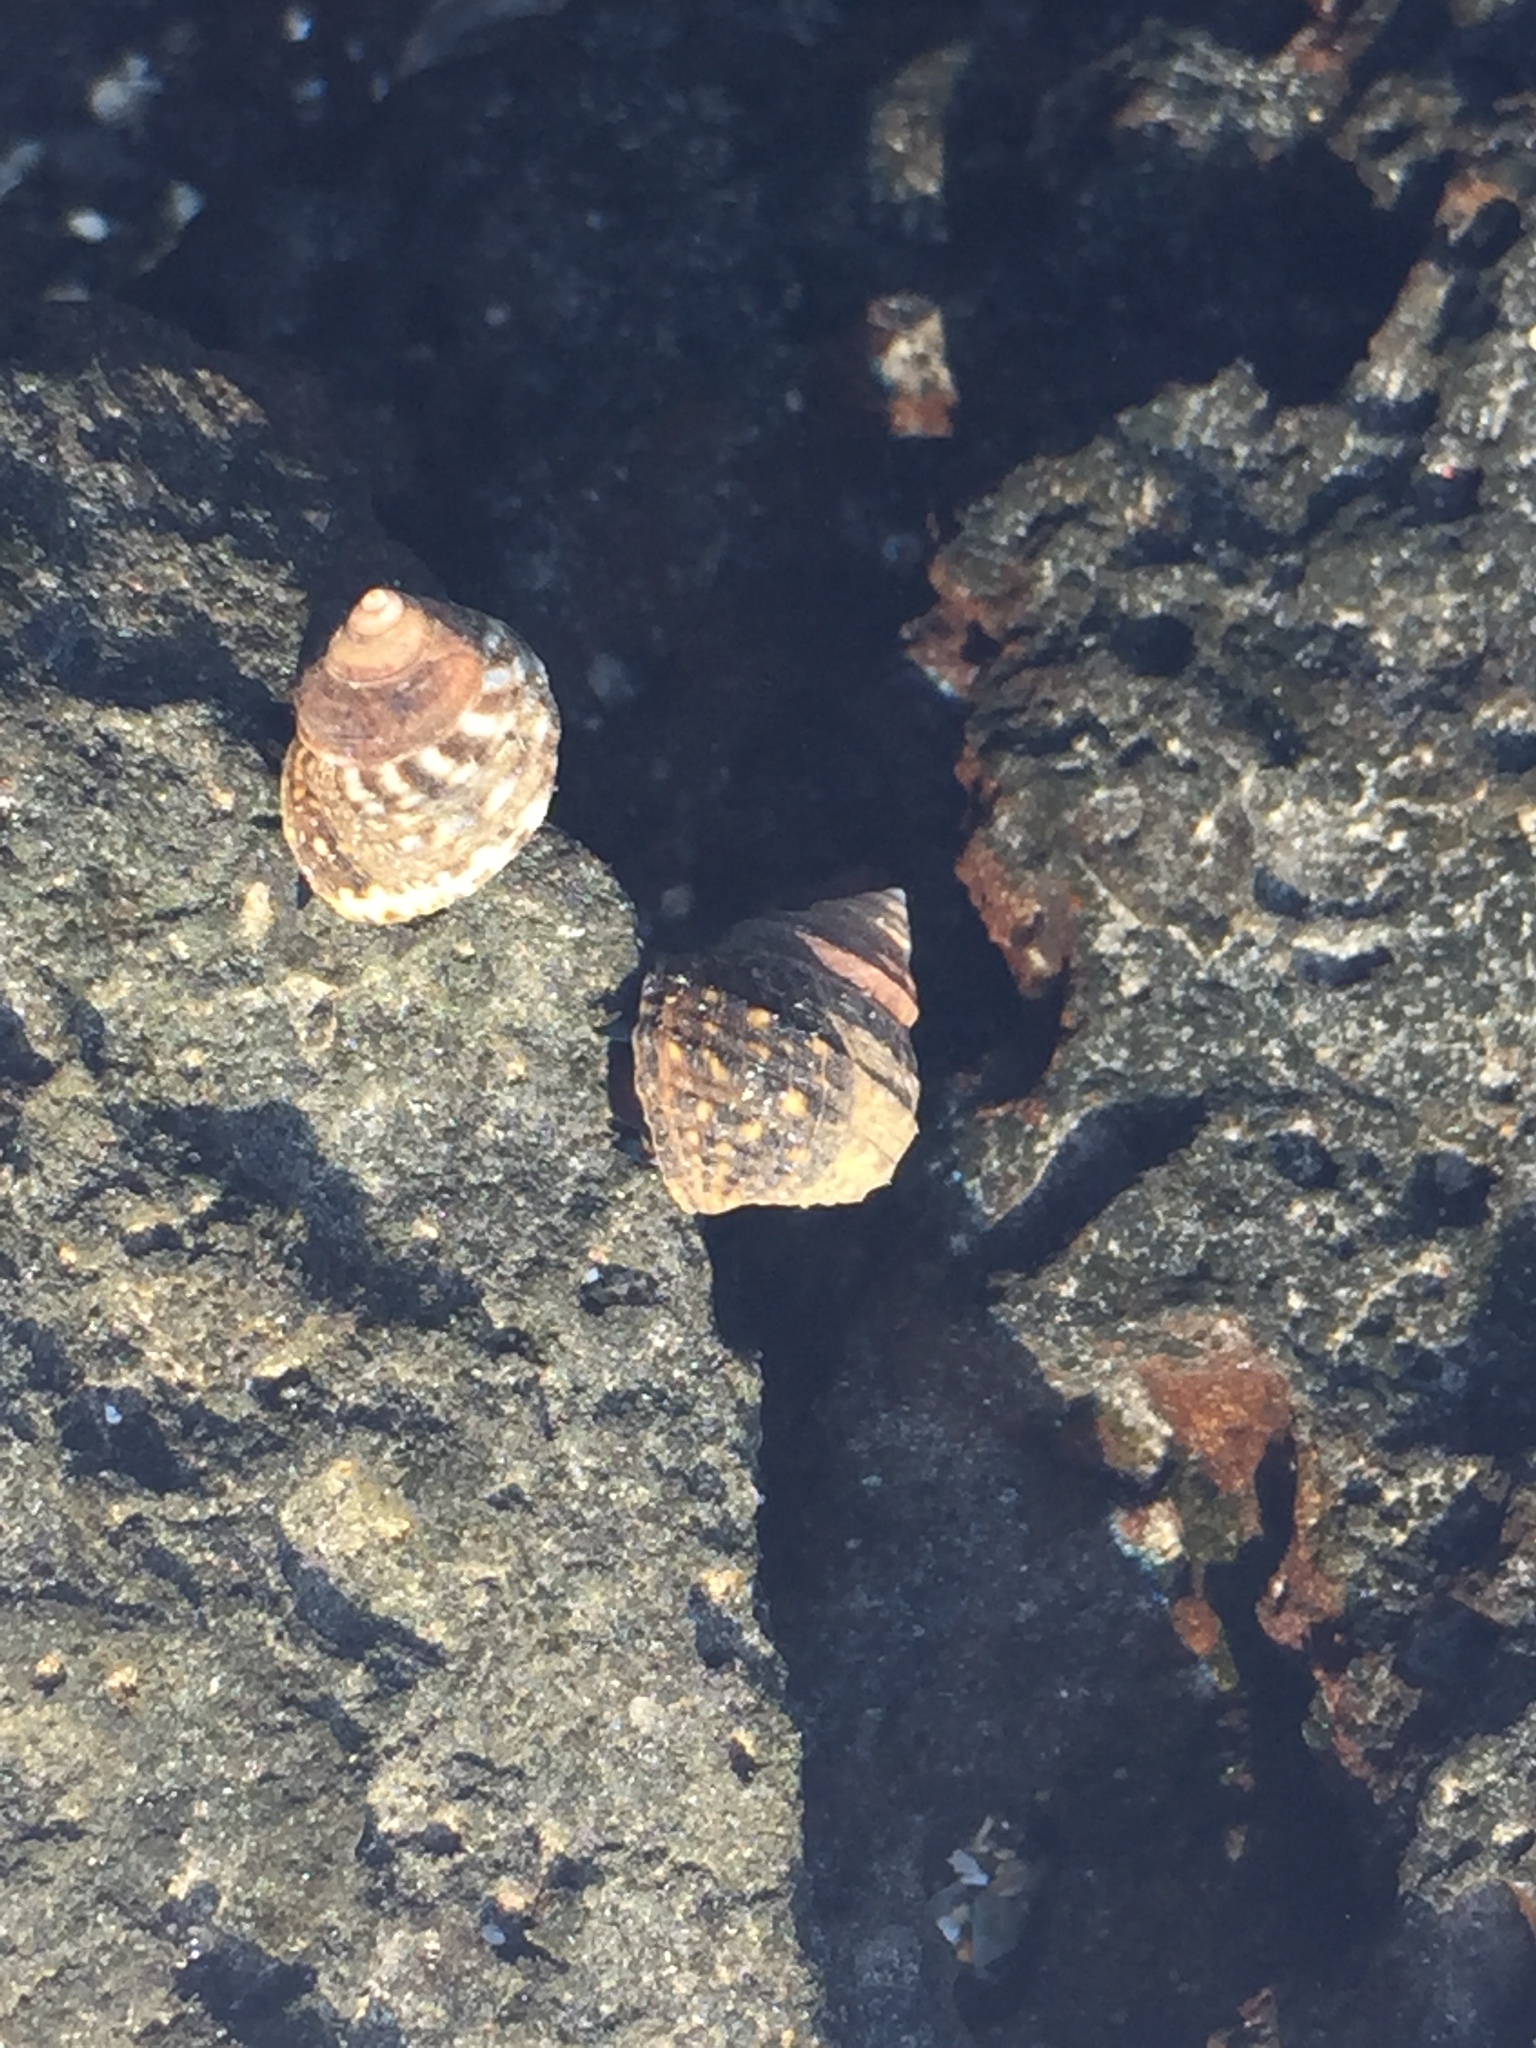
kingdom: Animalia
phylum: Mollusca
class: Gastropoda
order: Littorinimorpha
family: Littorinidae
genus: Littorina
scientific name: Littorina brevicula
